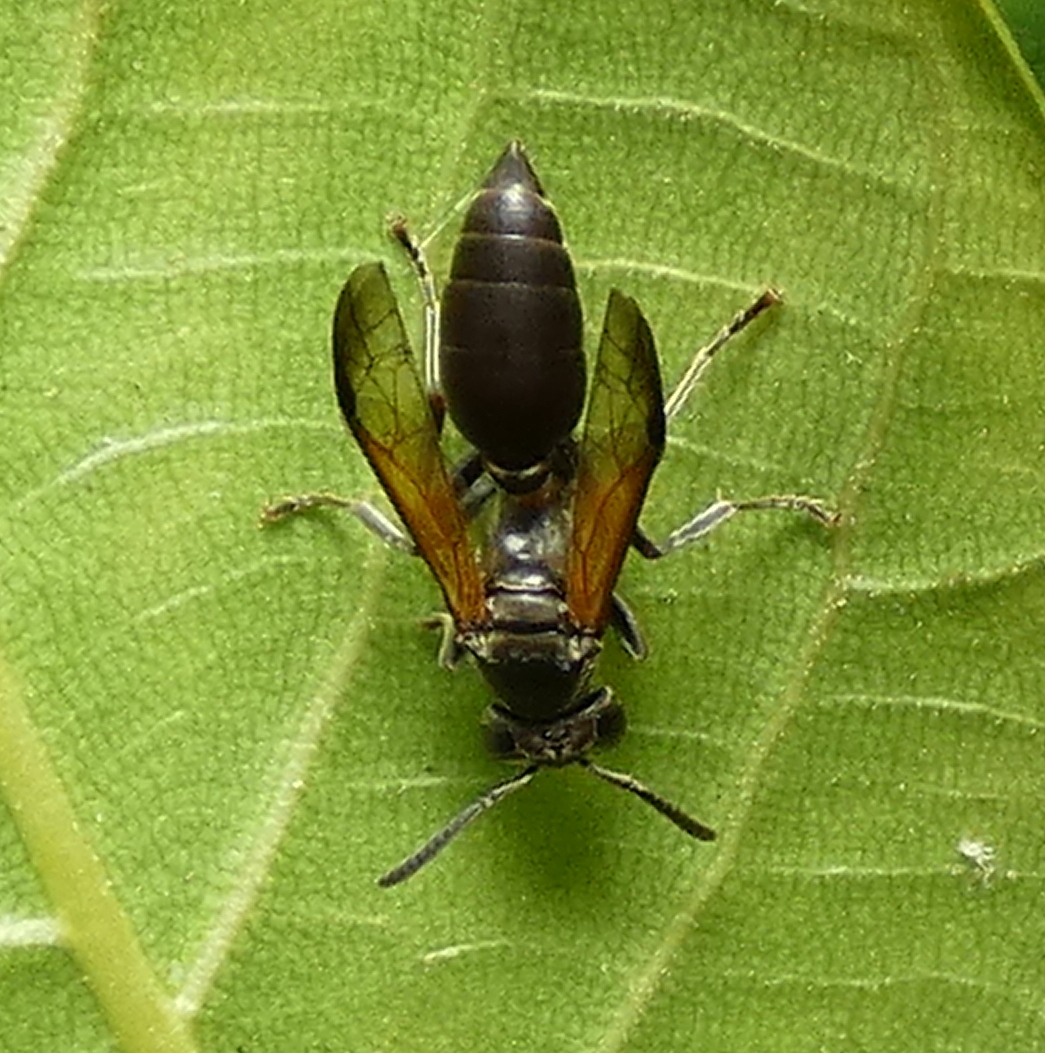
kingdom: Animalia
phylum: Arthropoda
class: Insecta
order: Hymenoptera
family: Eumenidae
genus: Polybia
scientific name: Polybia rejecta
